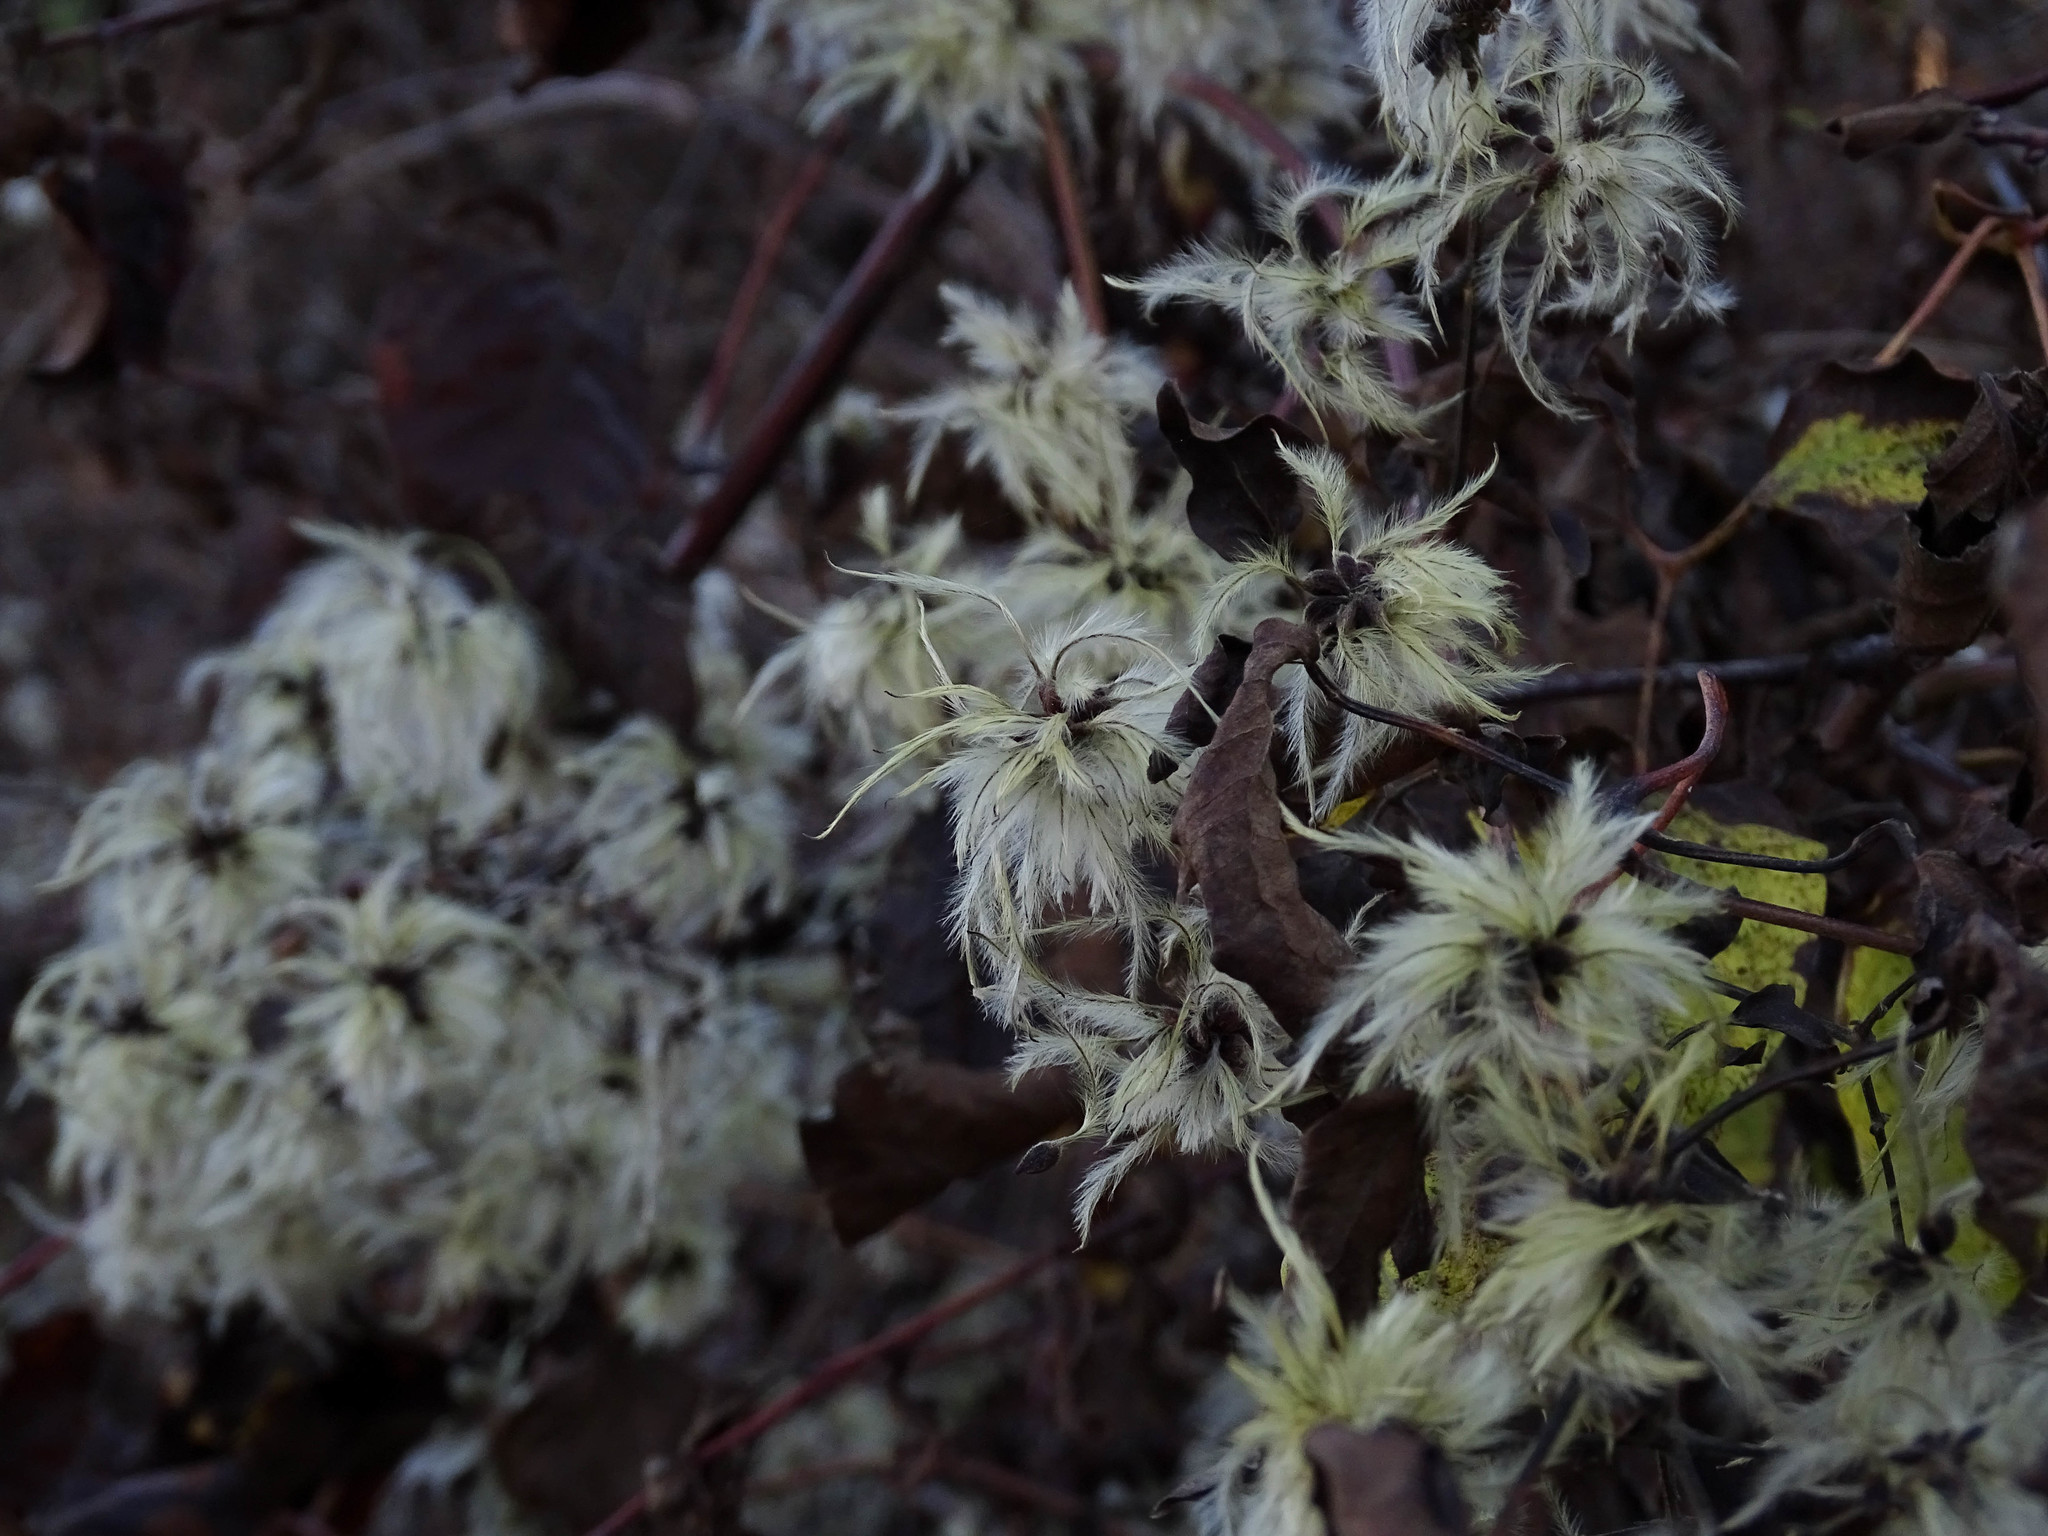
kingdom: Plantae
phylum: Tracheophyta
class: Magnoliopsida
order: Ranunculales
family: Ranunculaceae
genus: Clematis
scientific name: Clematis vitalba
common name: Evergreen clematis
